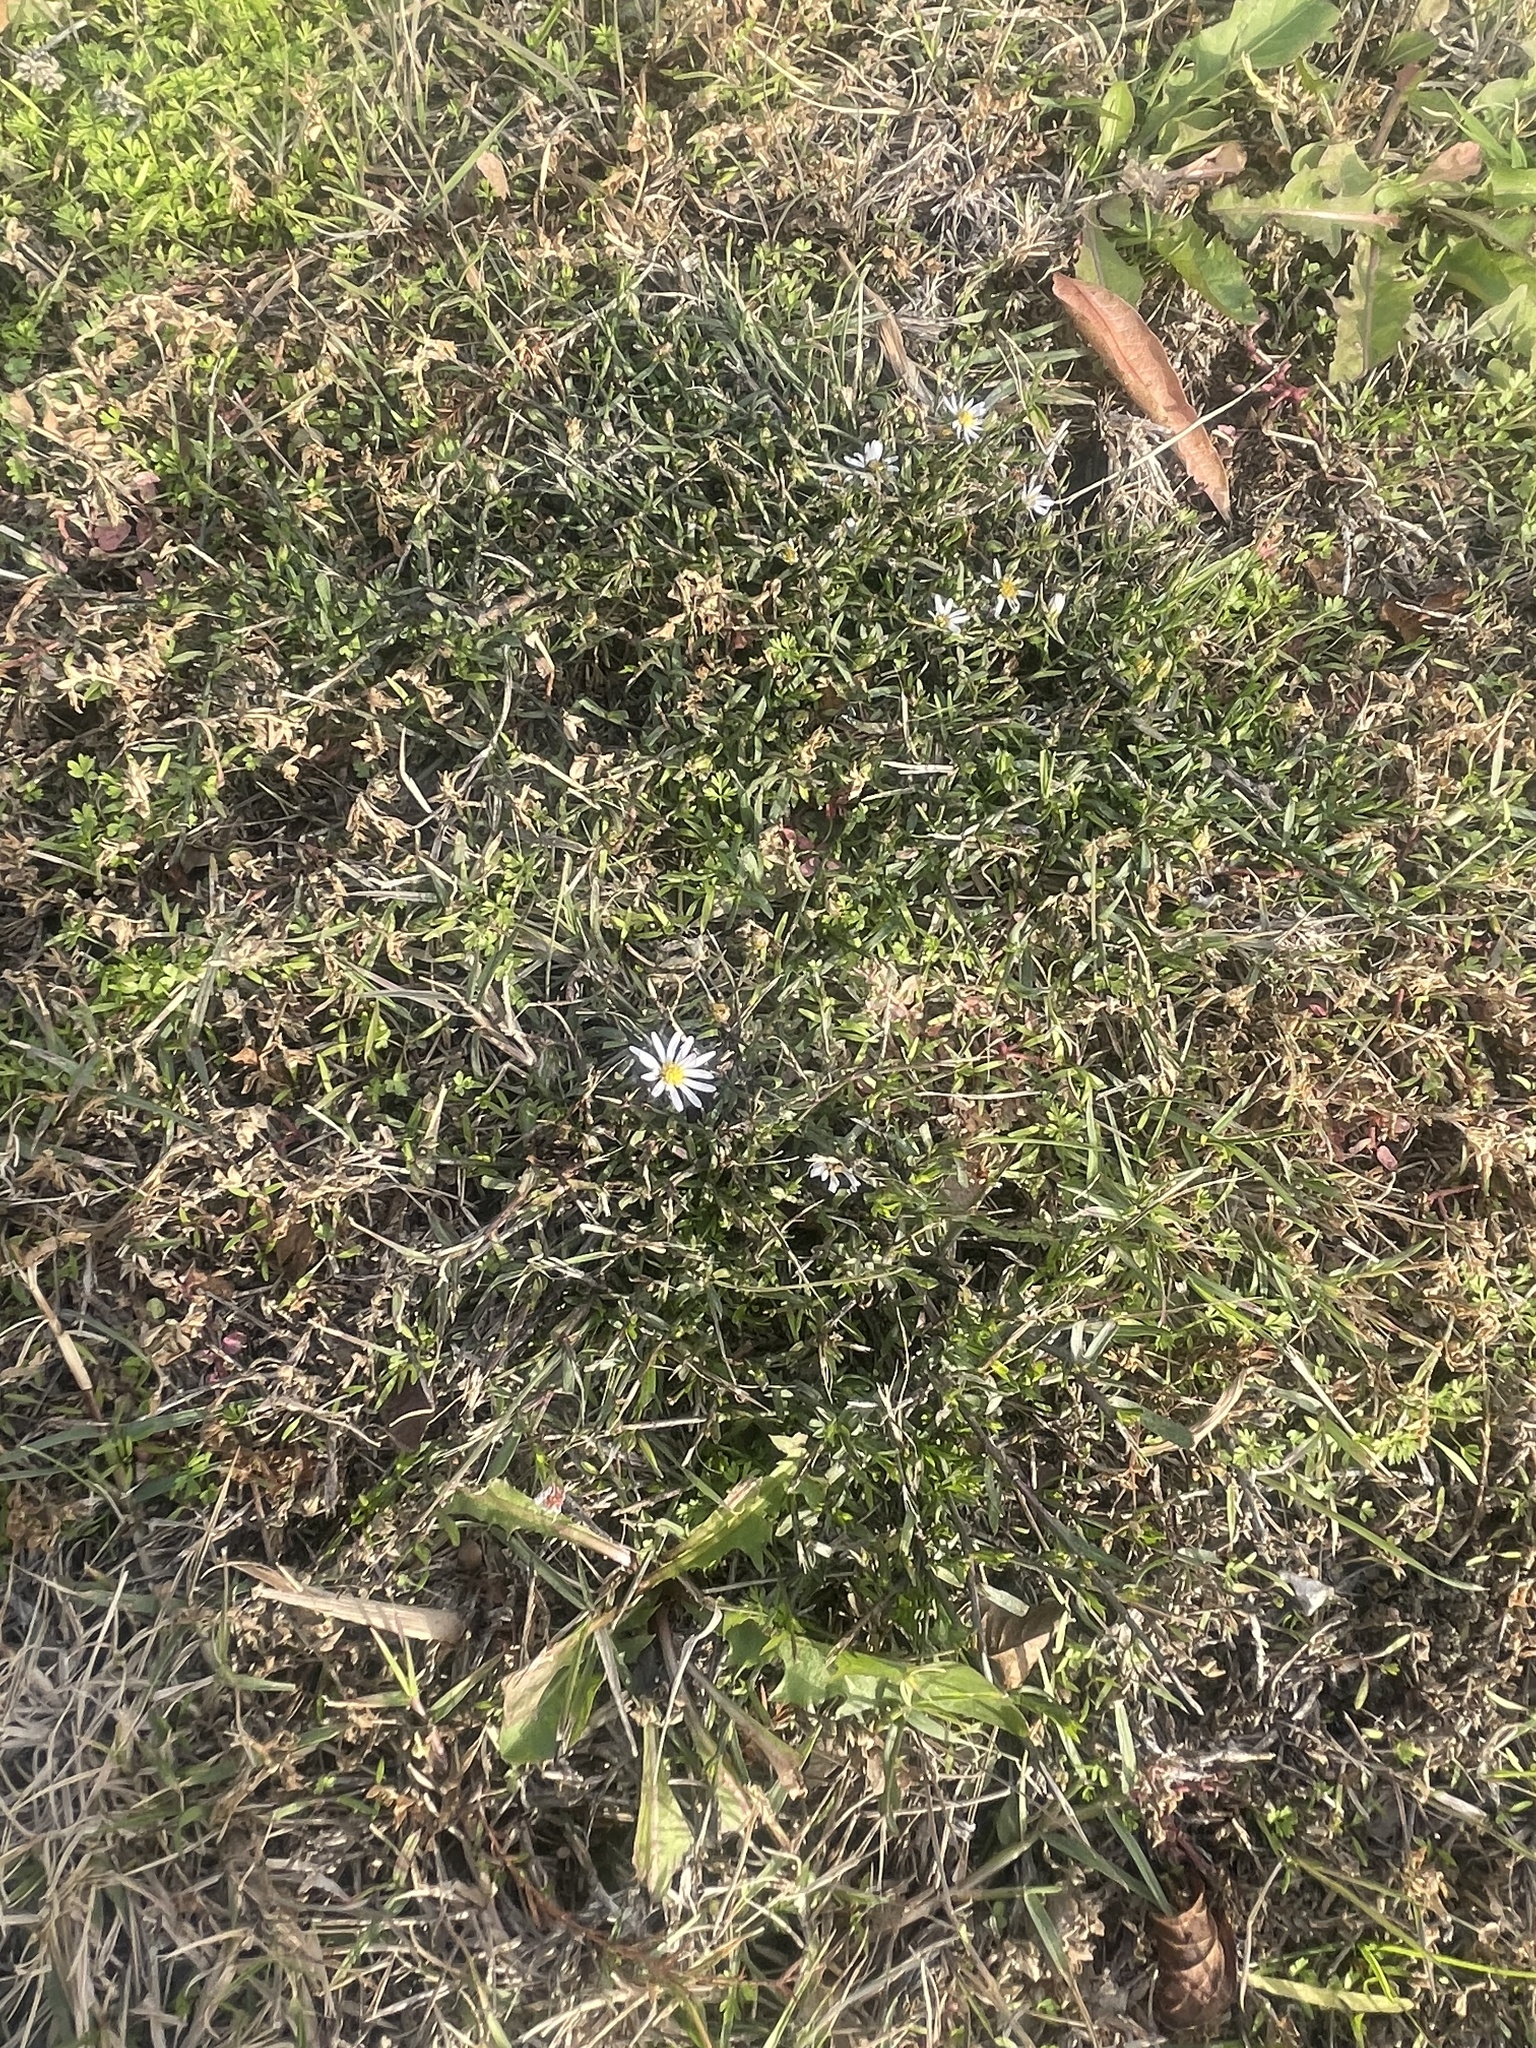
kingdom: Plantae
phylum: Tracheophyta
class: Magnoliopsida
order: Asterales
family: Asteraceae
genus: Symphyotrichum
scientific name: Symphyotrichum divaricatum
